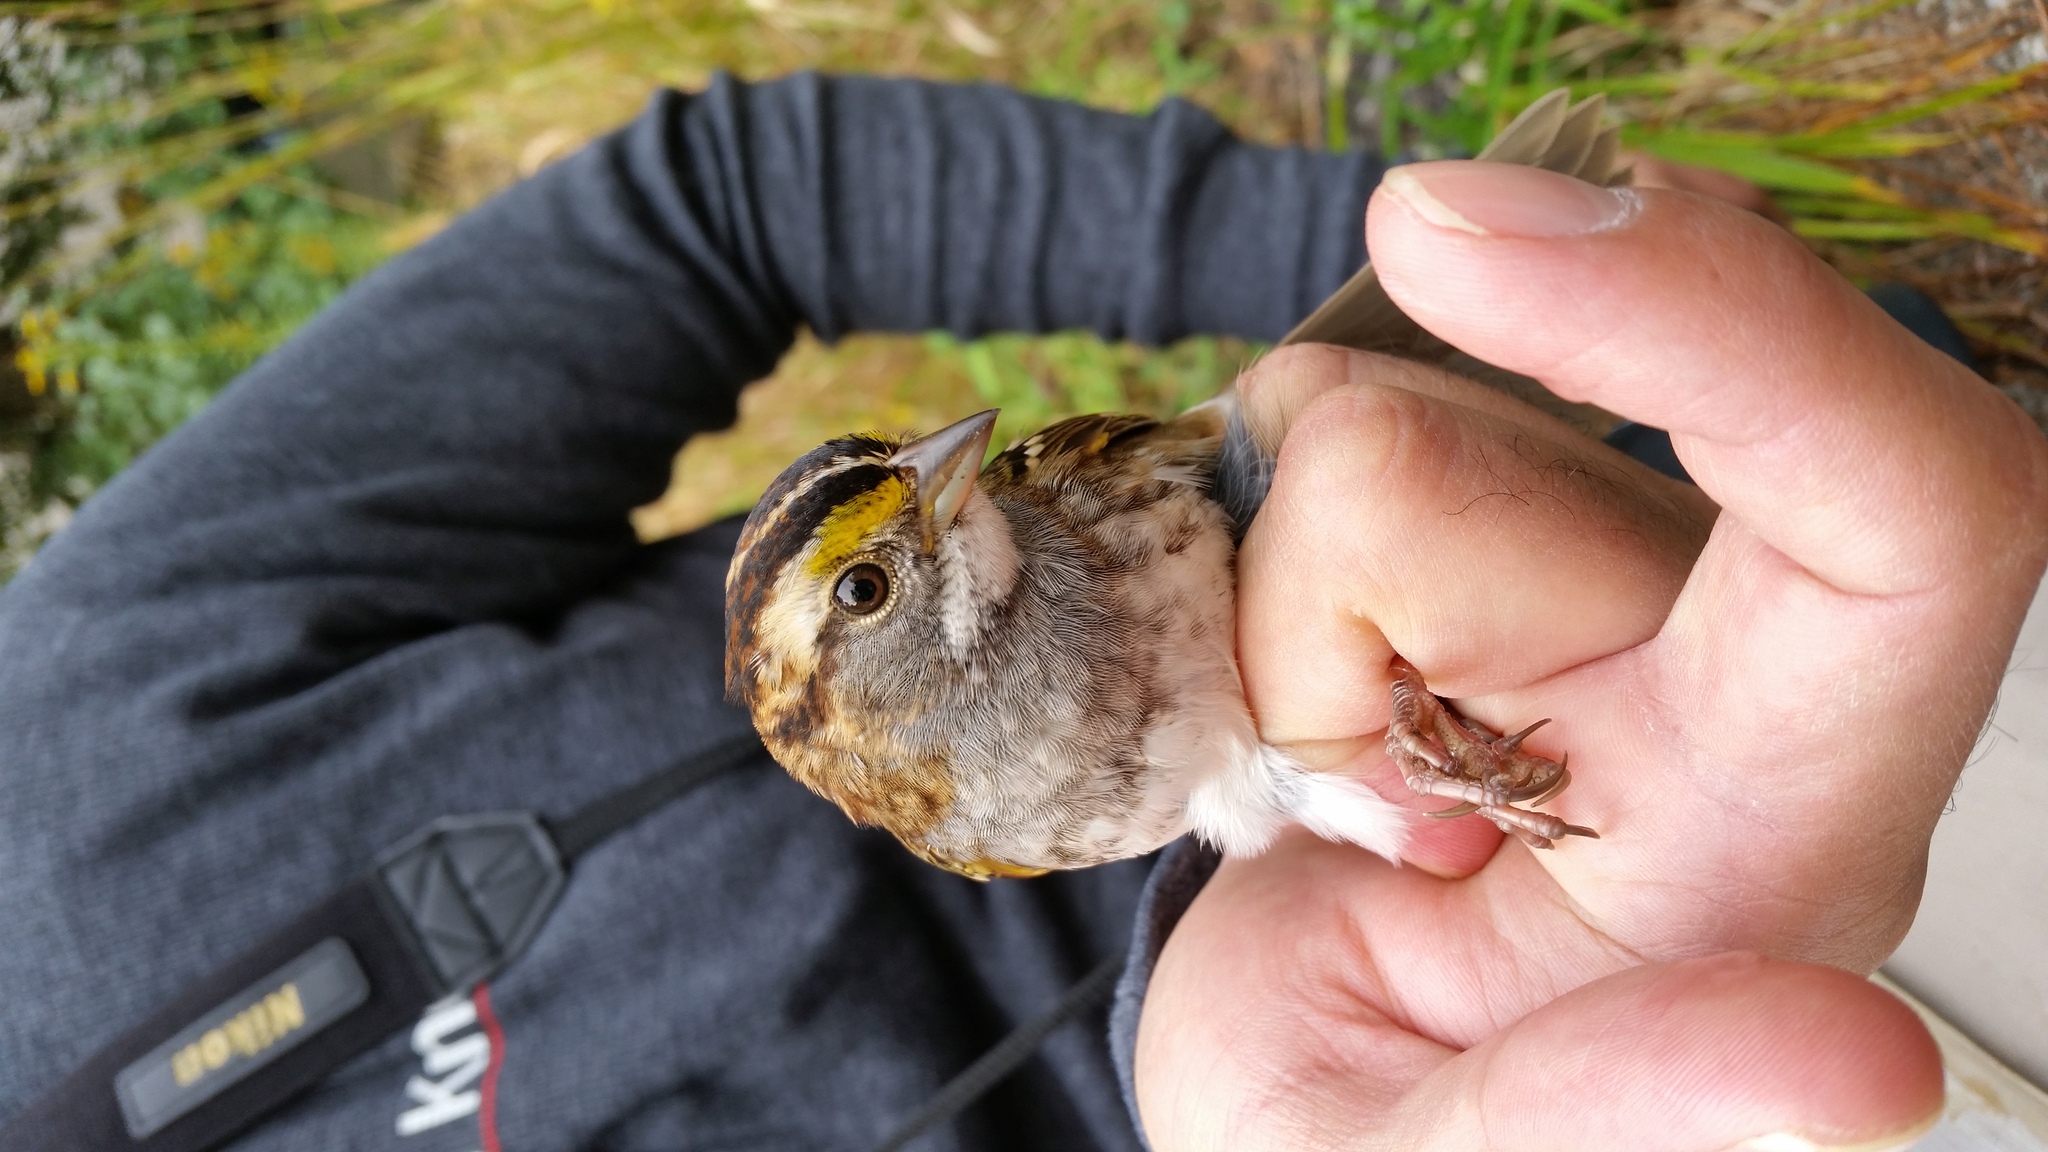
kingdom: Animalia
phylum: Chordata
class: Aves
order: Passeriformes
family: Passerellidae
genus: Zonotrichia
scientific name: Zonotrichia albicollis
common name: White-throated sparrow
